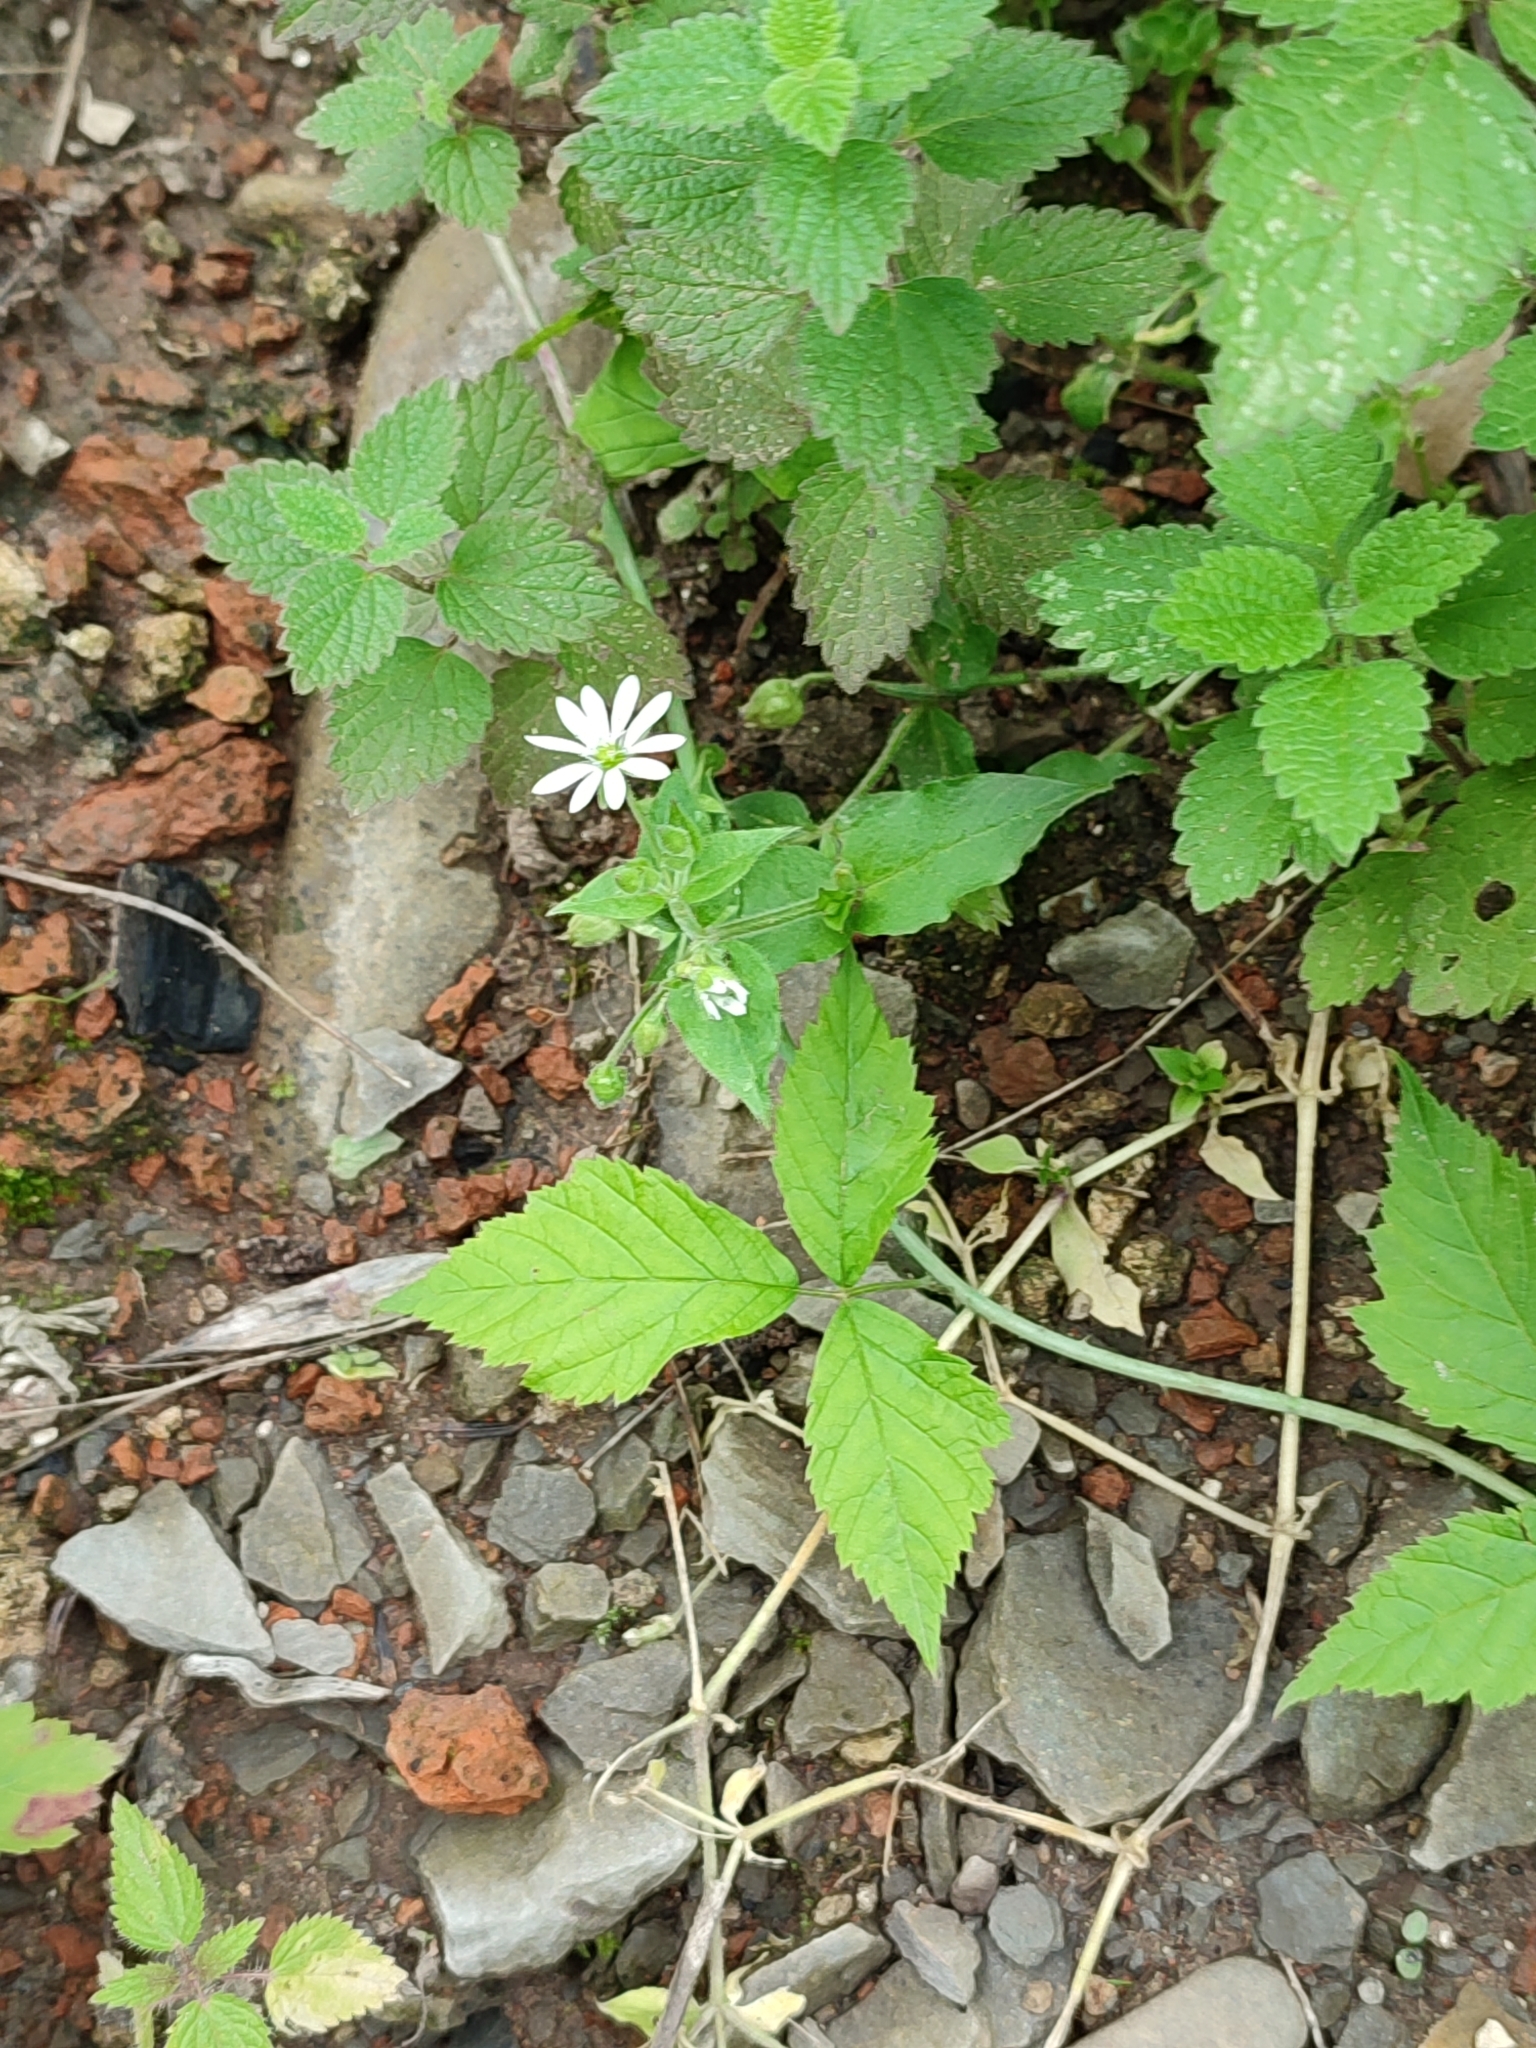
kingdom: Plantae
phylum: Tracheophyta
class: Magnoliopsida
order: Caryophyllales
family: Caryophyllaceae
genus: Stellaria
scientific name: Stellaria aquatica
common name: Water chickweed
